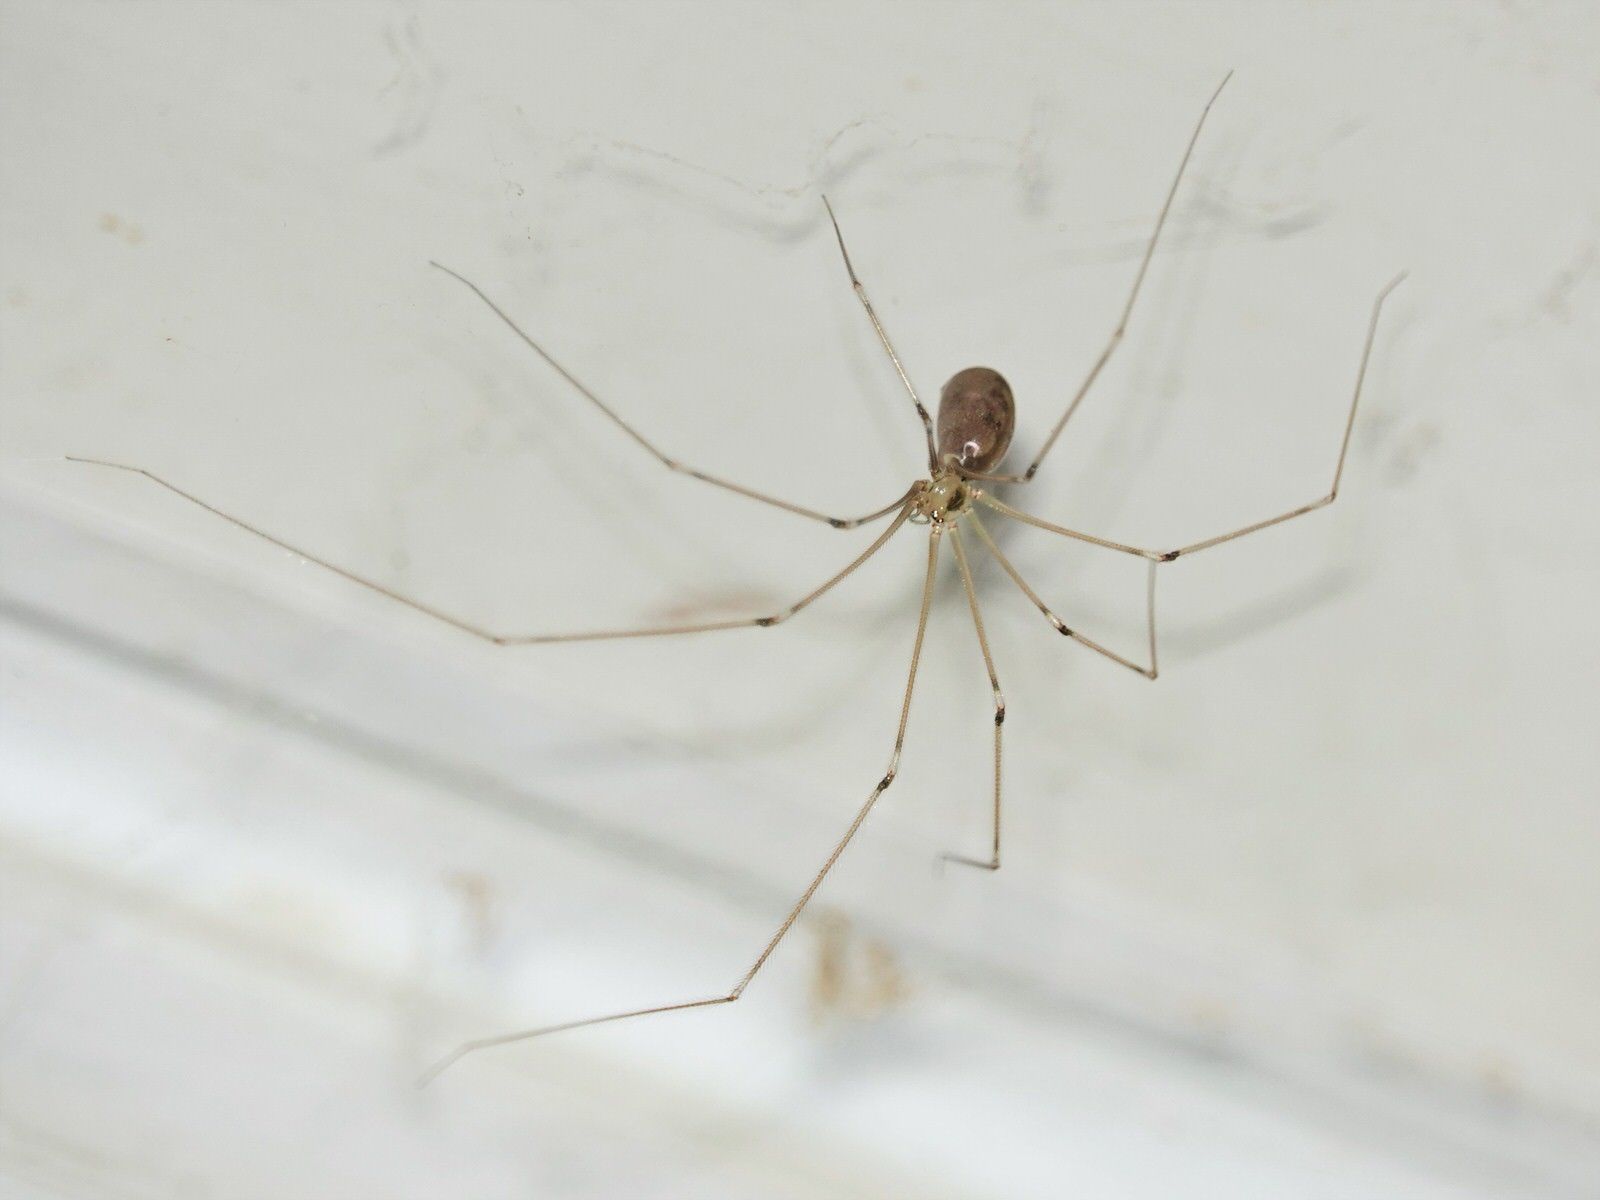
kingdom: Animalia
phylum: Arthropoda
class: Arachnida
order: Araneae
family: Pholcidae
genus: Pholcus
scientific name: Pholcus phalangioides
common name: Longbodied cellar spider
